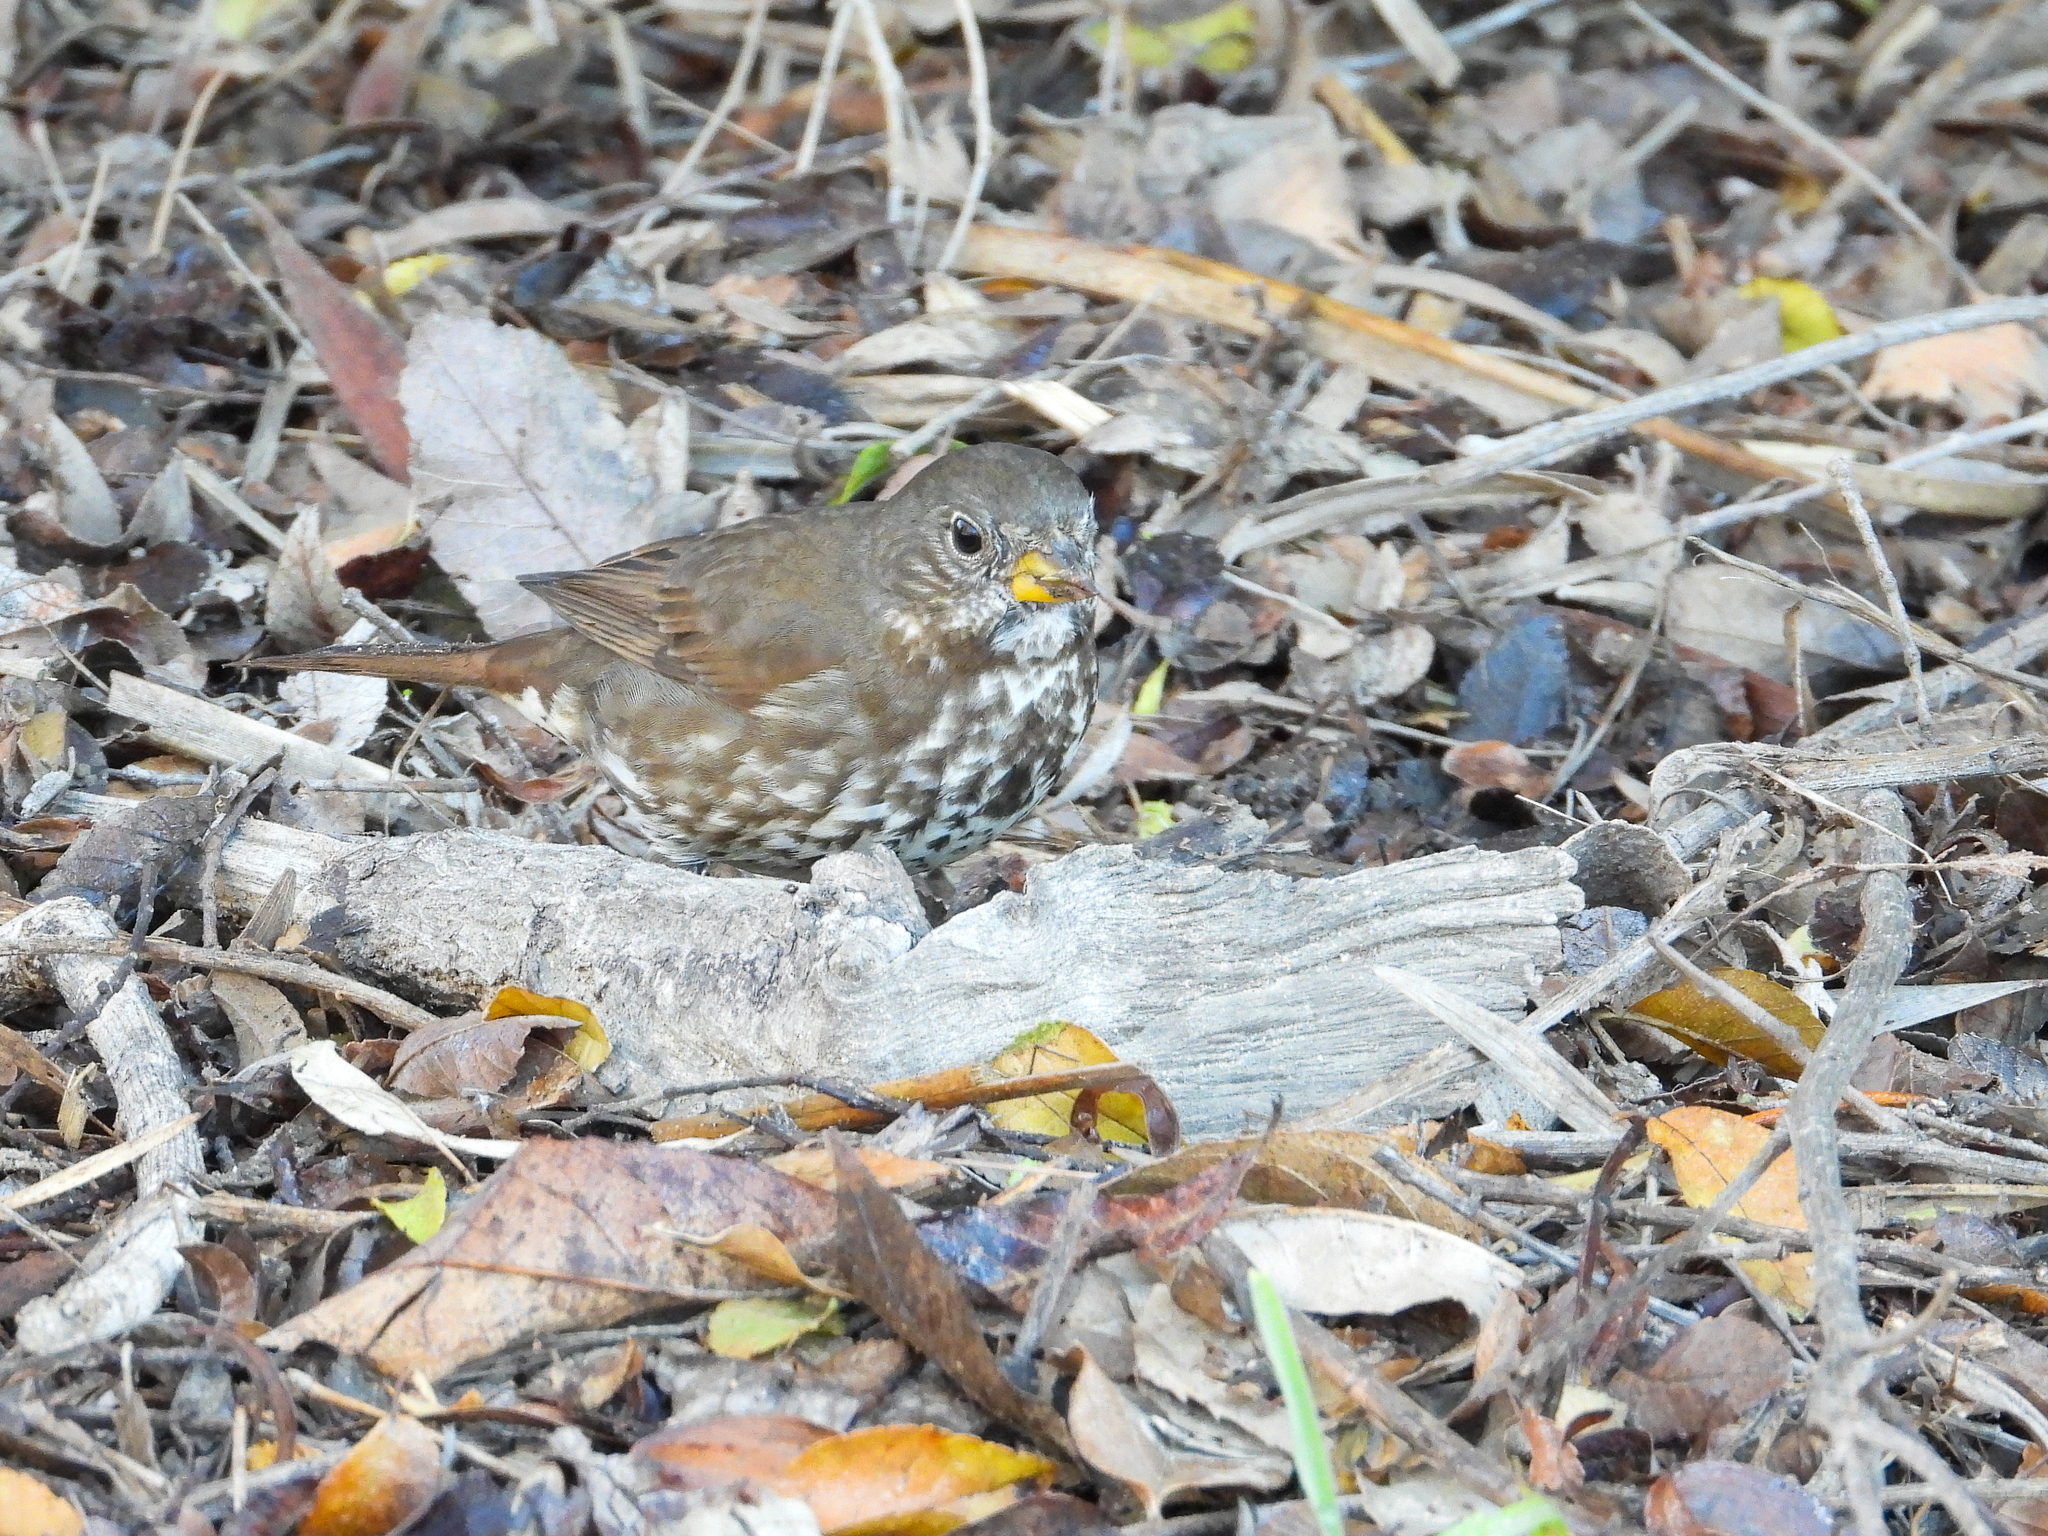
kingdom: Animalia
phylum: Chordata
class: Aves
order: Passeriformes
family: Passerellidae
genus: Passerella
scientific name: Passerella iliaca
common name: Fox sparrow
